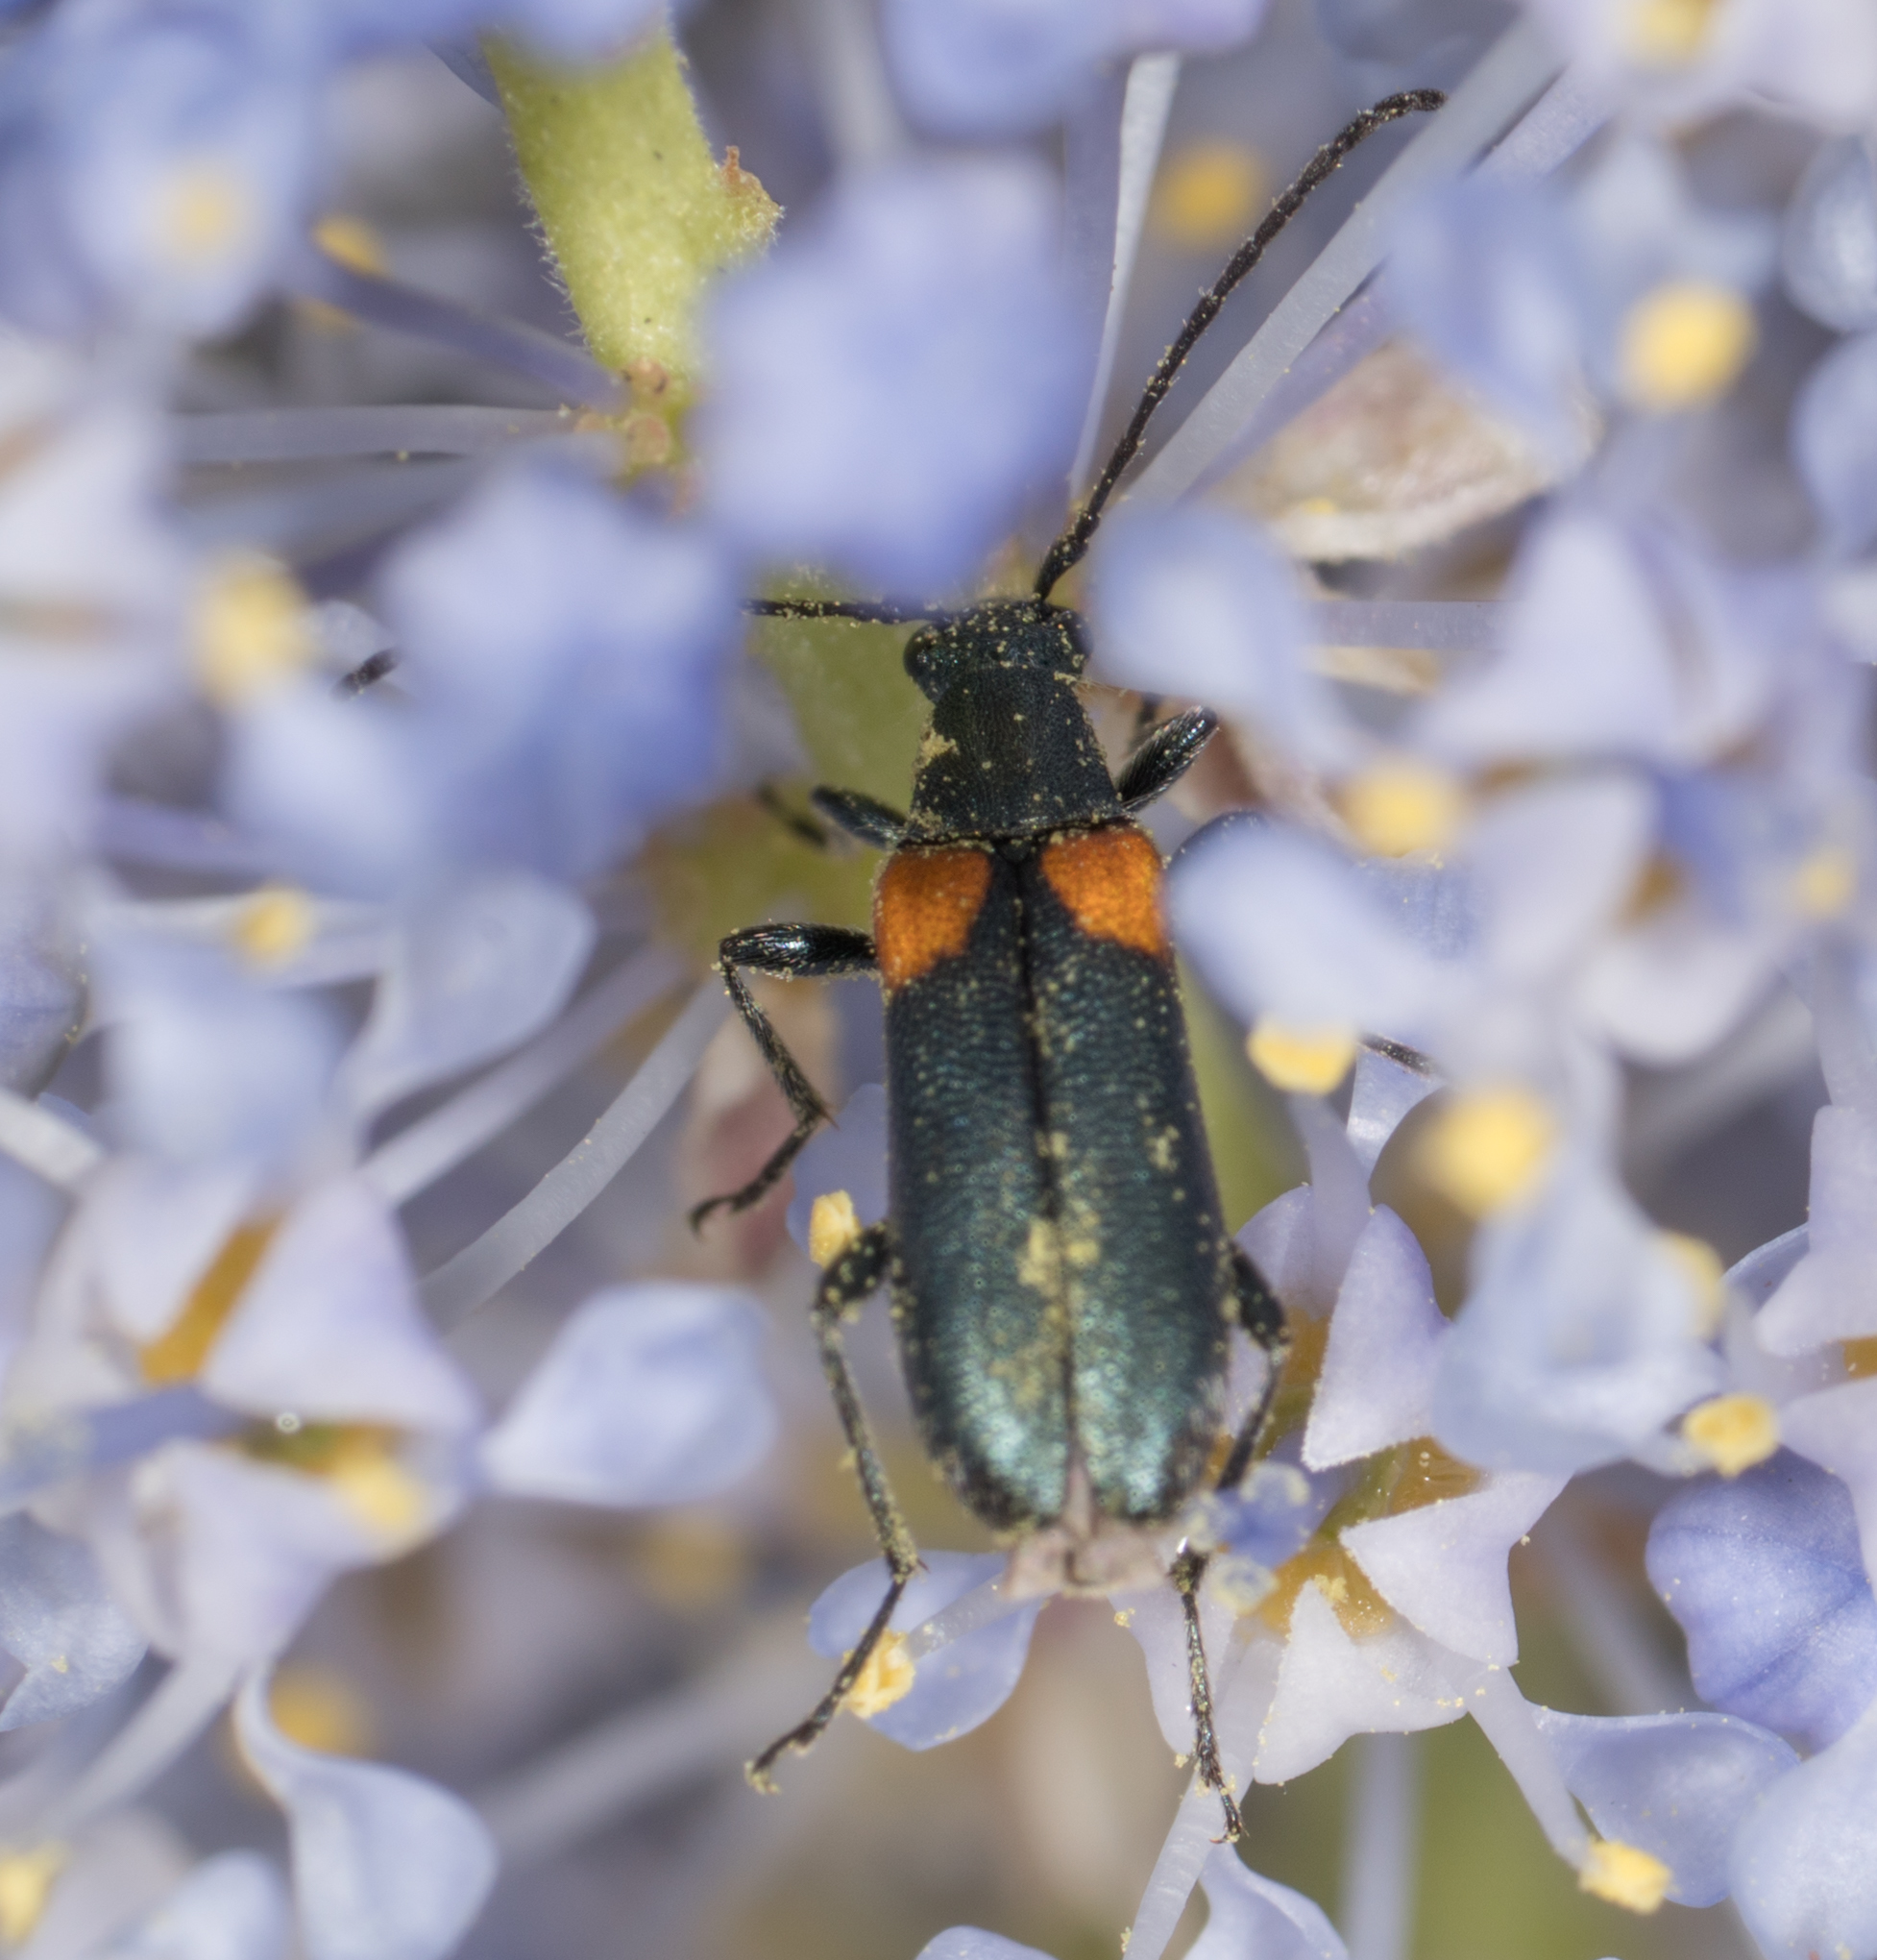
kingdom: Animalia
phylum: Arthropoda
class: Insecta
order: Coleoptera
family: Cerambycidae
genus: Grammoptera
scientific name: Grammoptera militaris
